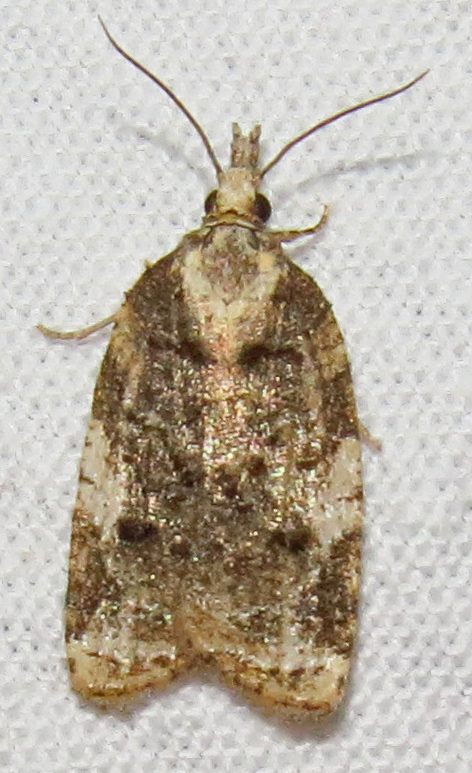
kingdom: Animalia
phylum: Arthropoda
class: Insecta
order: Lepidoptera
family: Tortricidae
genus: Platynota
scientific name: Platynota exasperatana
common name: Exasperating platynota moth
